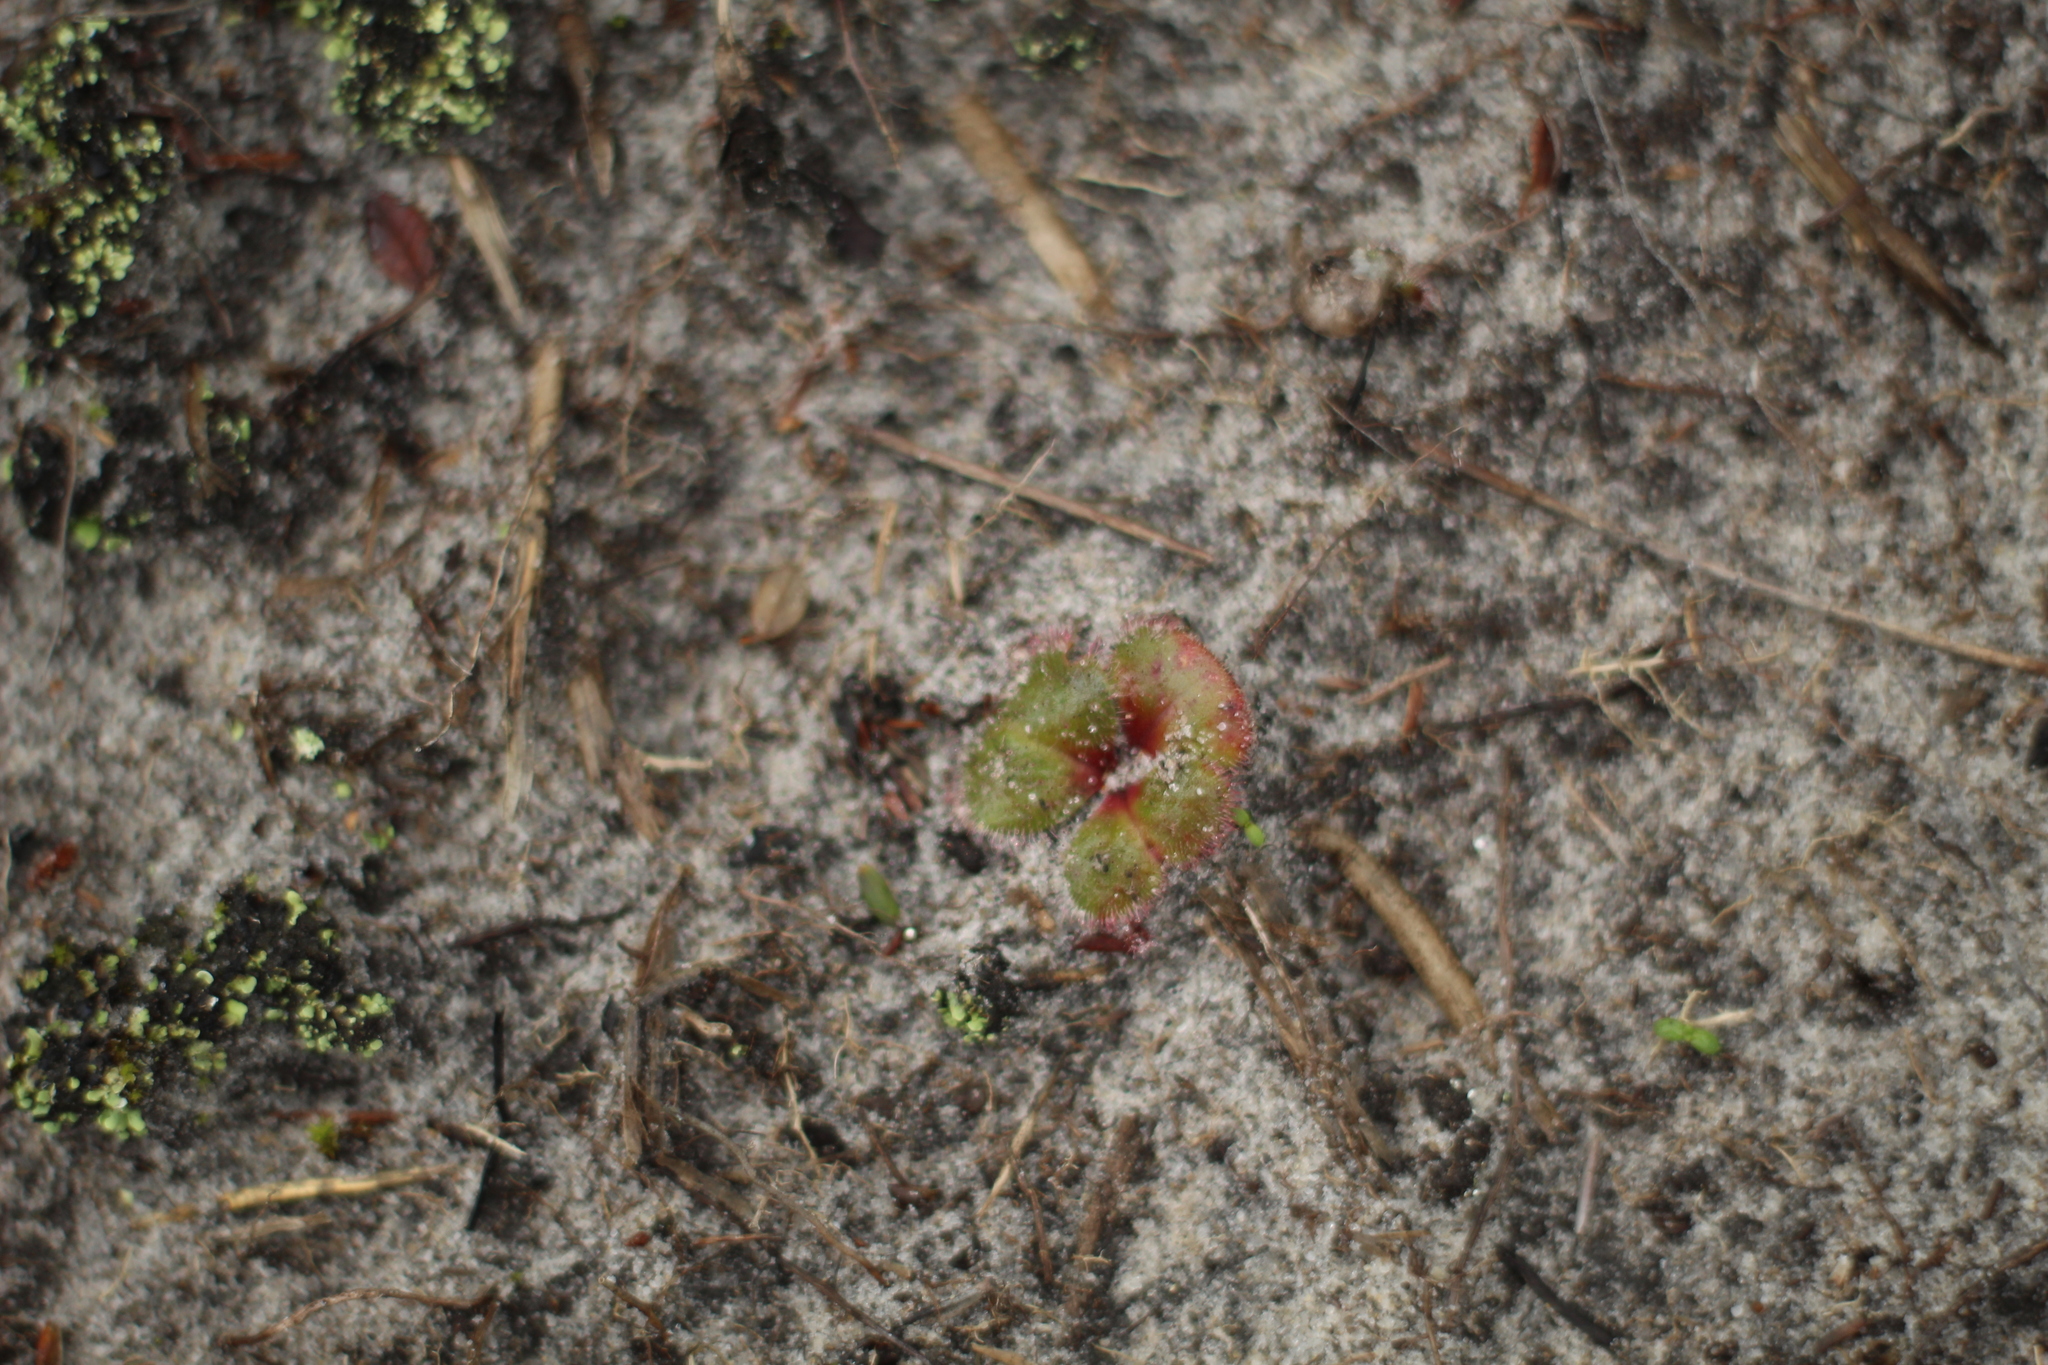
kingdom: Plantae
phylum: Tracheophyta
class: Magnoliopsida
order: Caryophyllales
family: Droseraceae
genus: Drosera
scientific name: Drosera erythrorhiza
